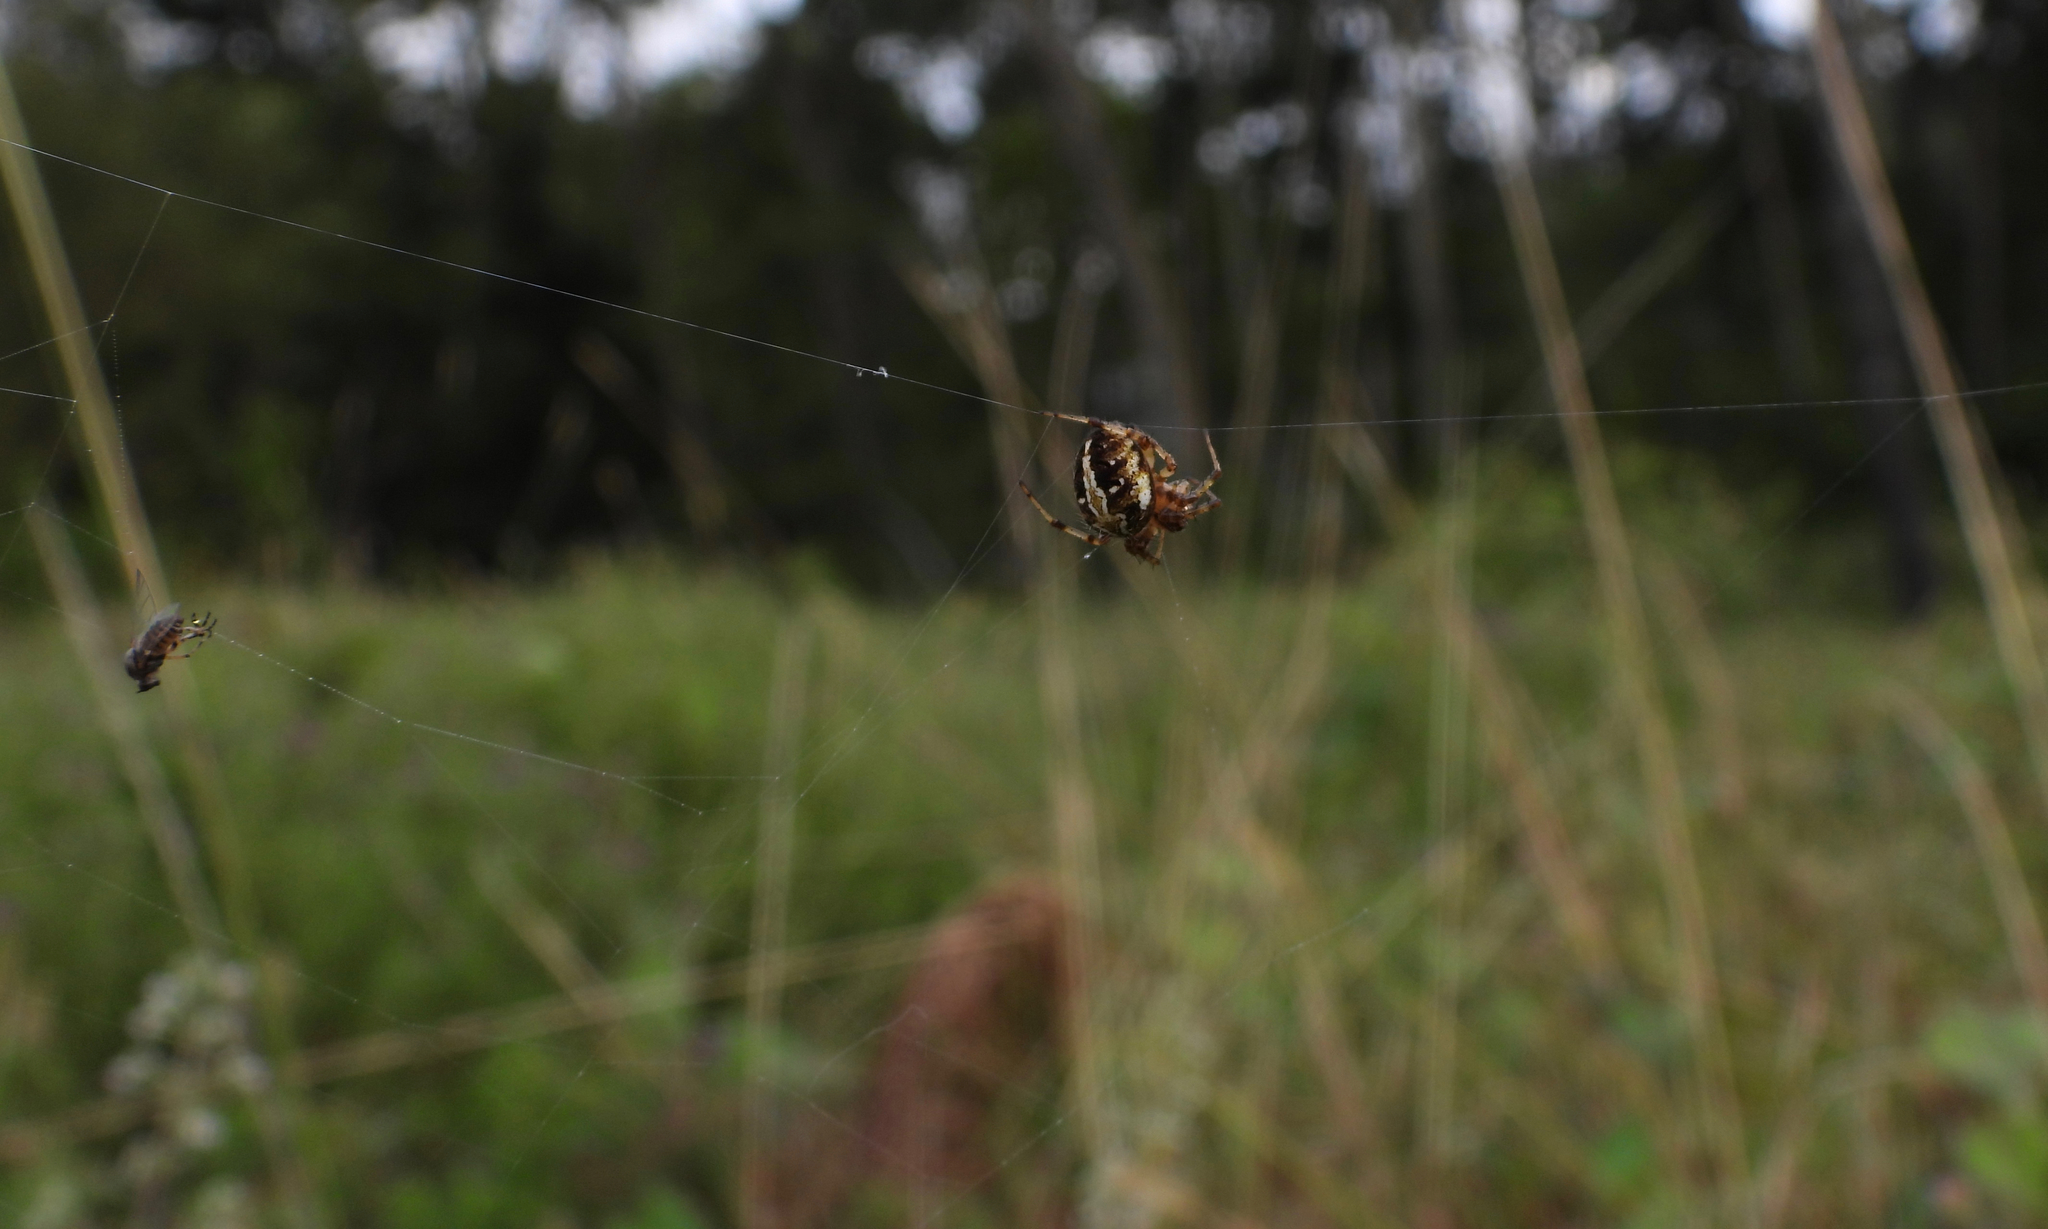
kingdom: Animalia
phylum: Arthropoda
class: Arachnida
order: Araneae
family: Araneidae
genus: Neoscona
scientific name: Neoscona arabesca
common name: Orb weavers
